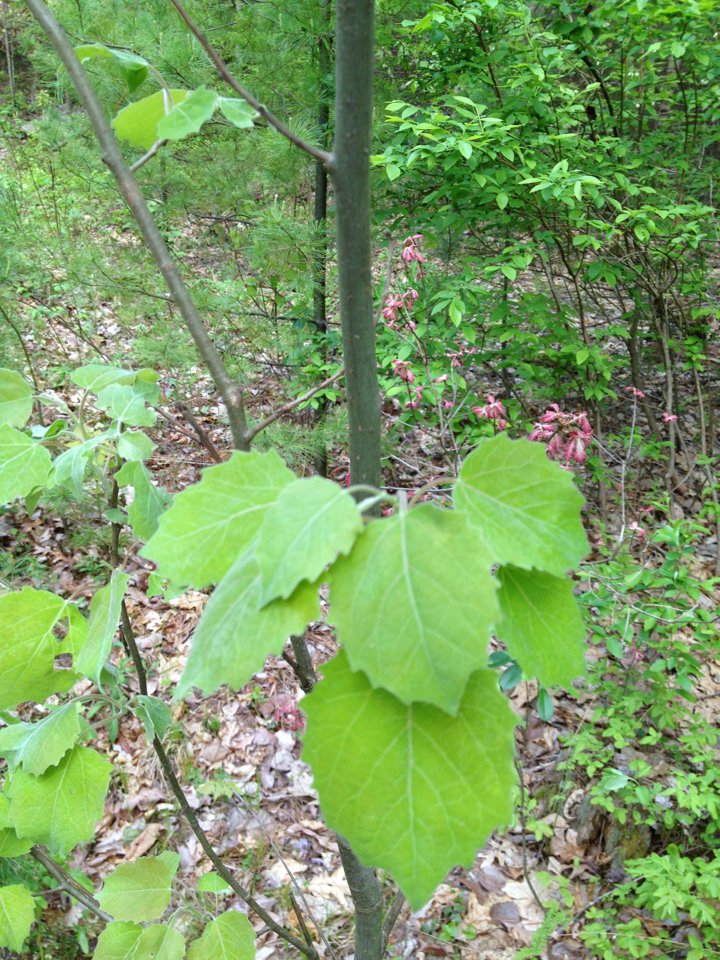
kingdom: Plantae
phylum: Tracheophyta
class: Magnoliopsida
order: Malpighiales
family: Salicaceae
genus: Populus
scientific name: Populus grandidentata
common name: Bigtooth aspen
